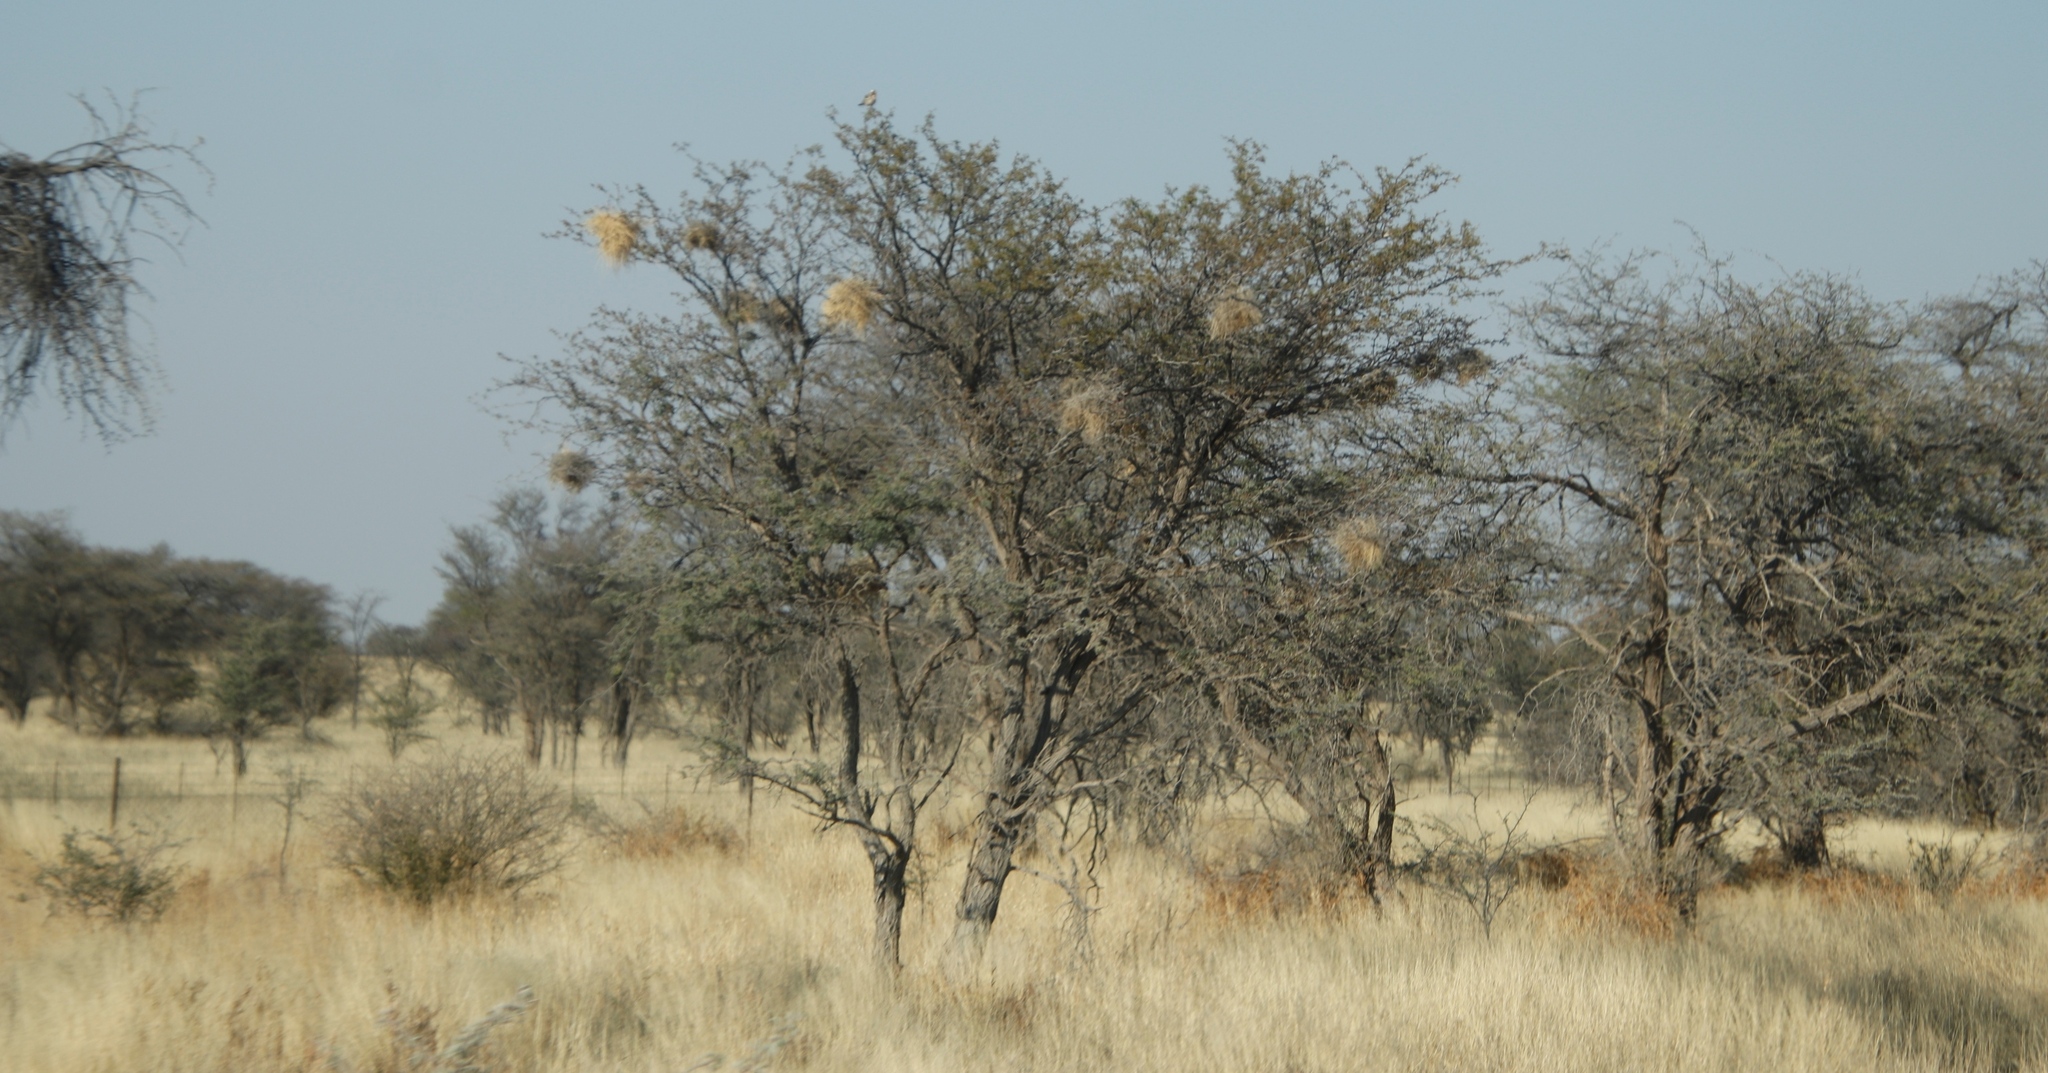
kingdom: Animalia
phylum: Chordata
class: Aves
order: Passeriformes
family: Passeridae
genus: Plocepasser
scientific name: Plocepasser mahali
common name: White-browed sparrow-weaver
